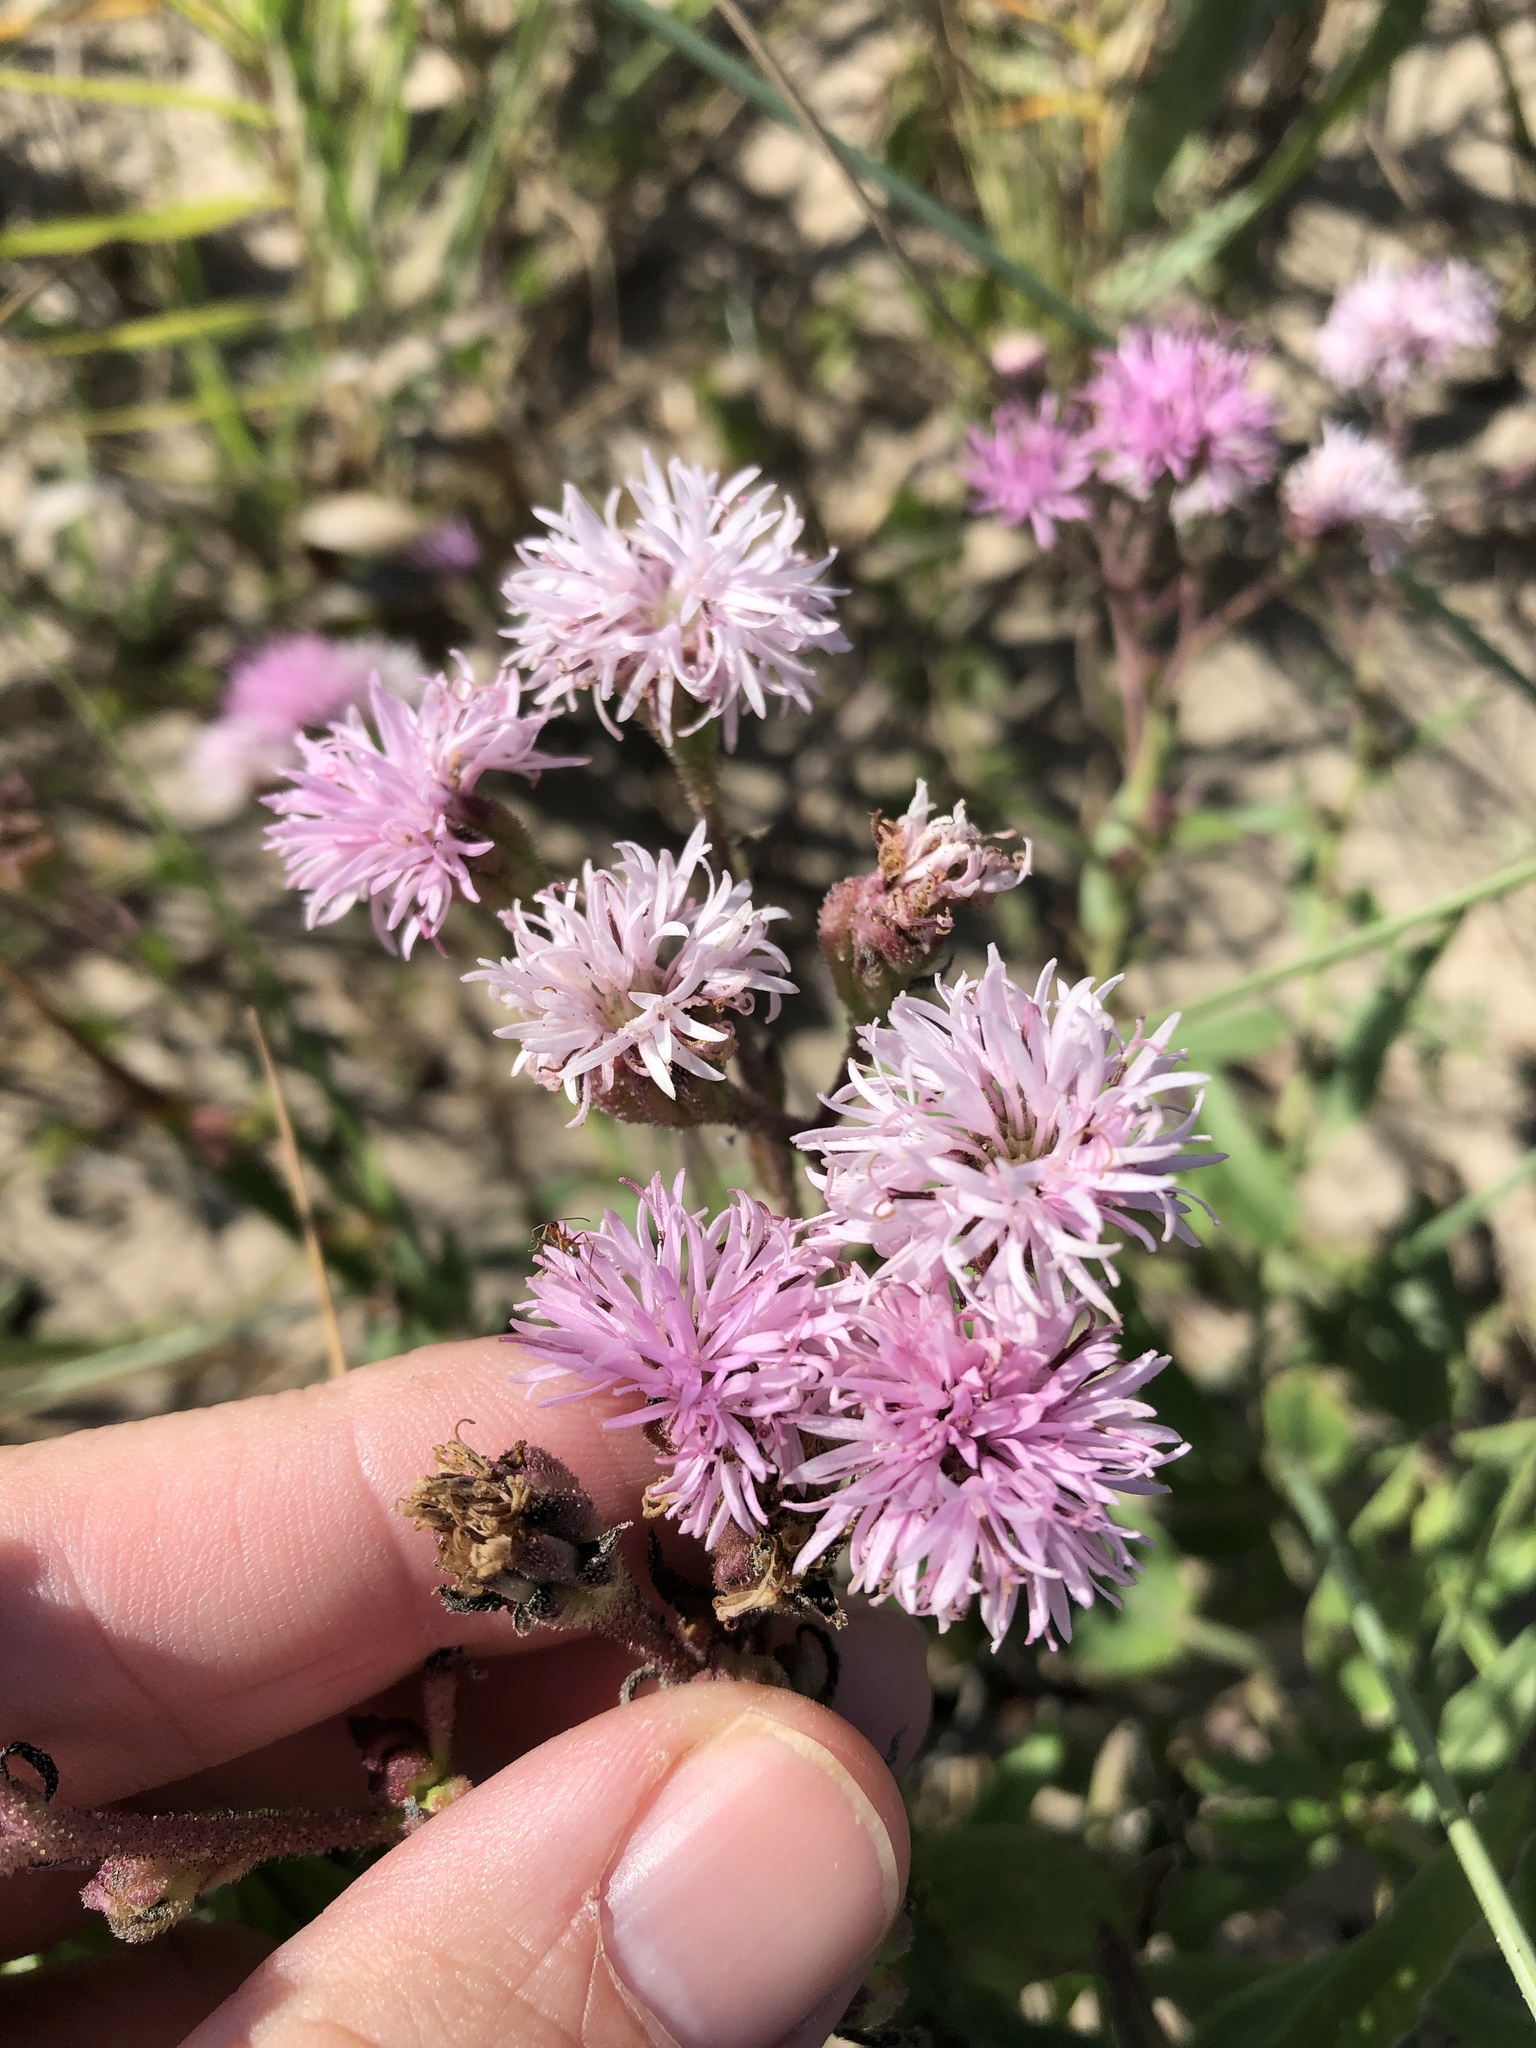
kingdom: Plantae
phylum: Tracheophyta
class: Magnoliopsida
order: Asterales
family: Asteraceae
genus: Palafoxia
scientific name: Palafoxia texana
